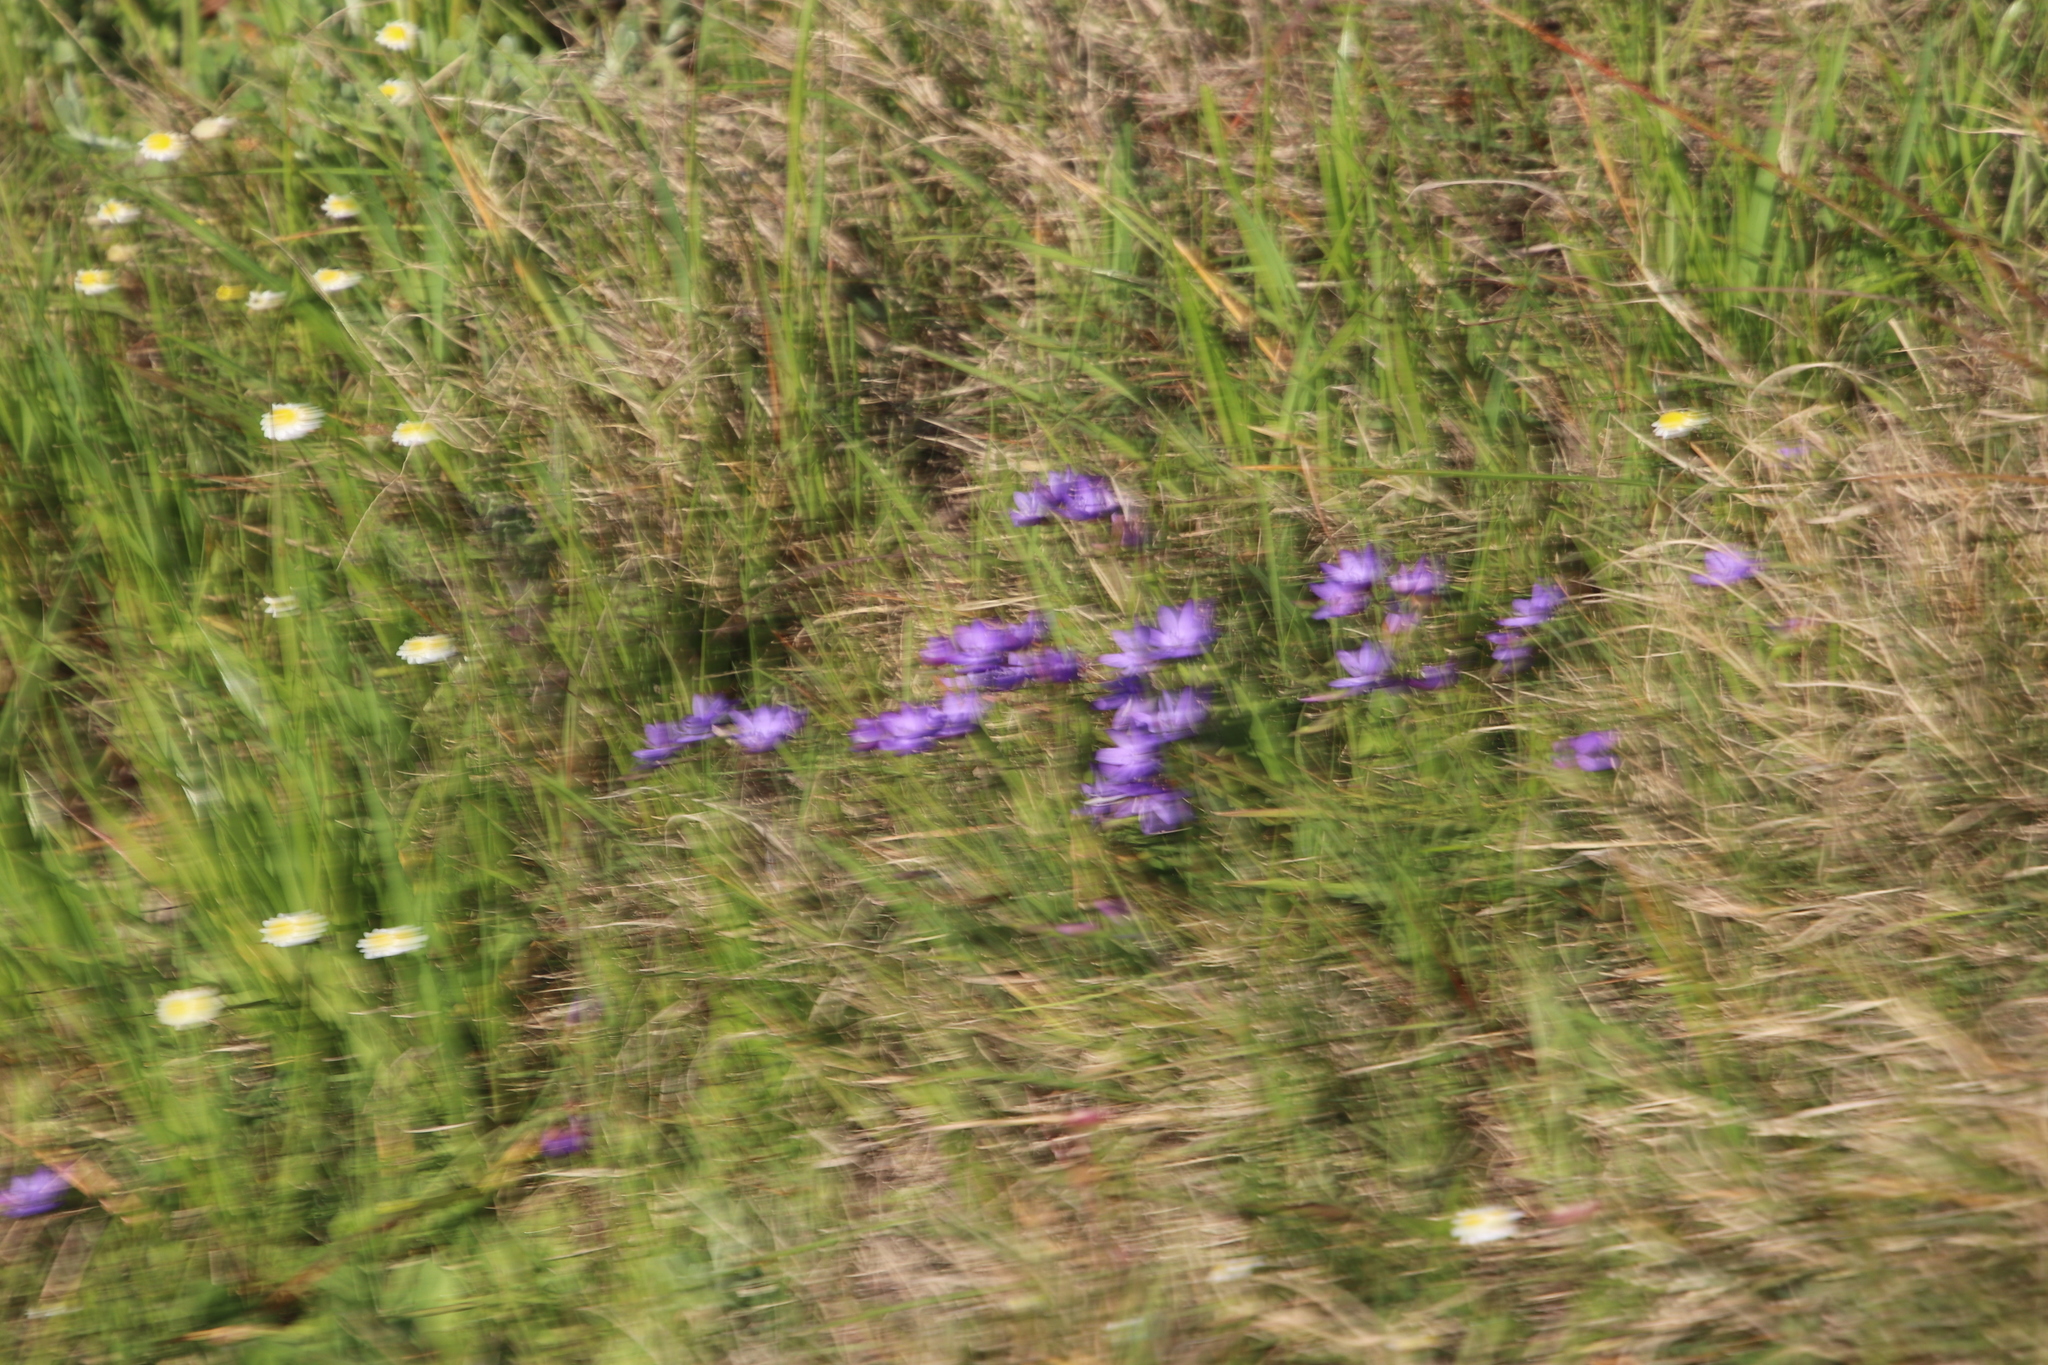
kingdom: Plantae
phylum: Tracheophyta
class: Liliopsida
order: Asparagales
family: Iridaceae
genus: Geissorhiza
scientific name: Geissorhiza aspera
